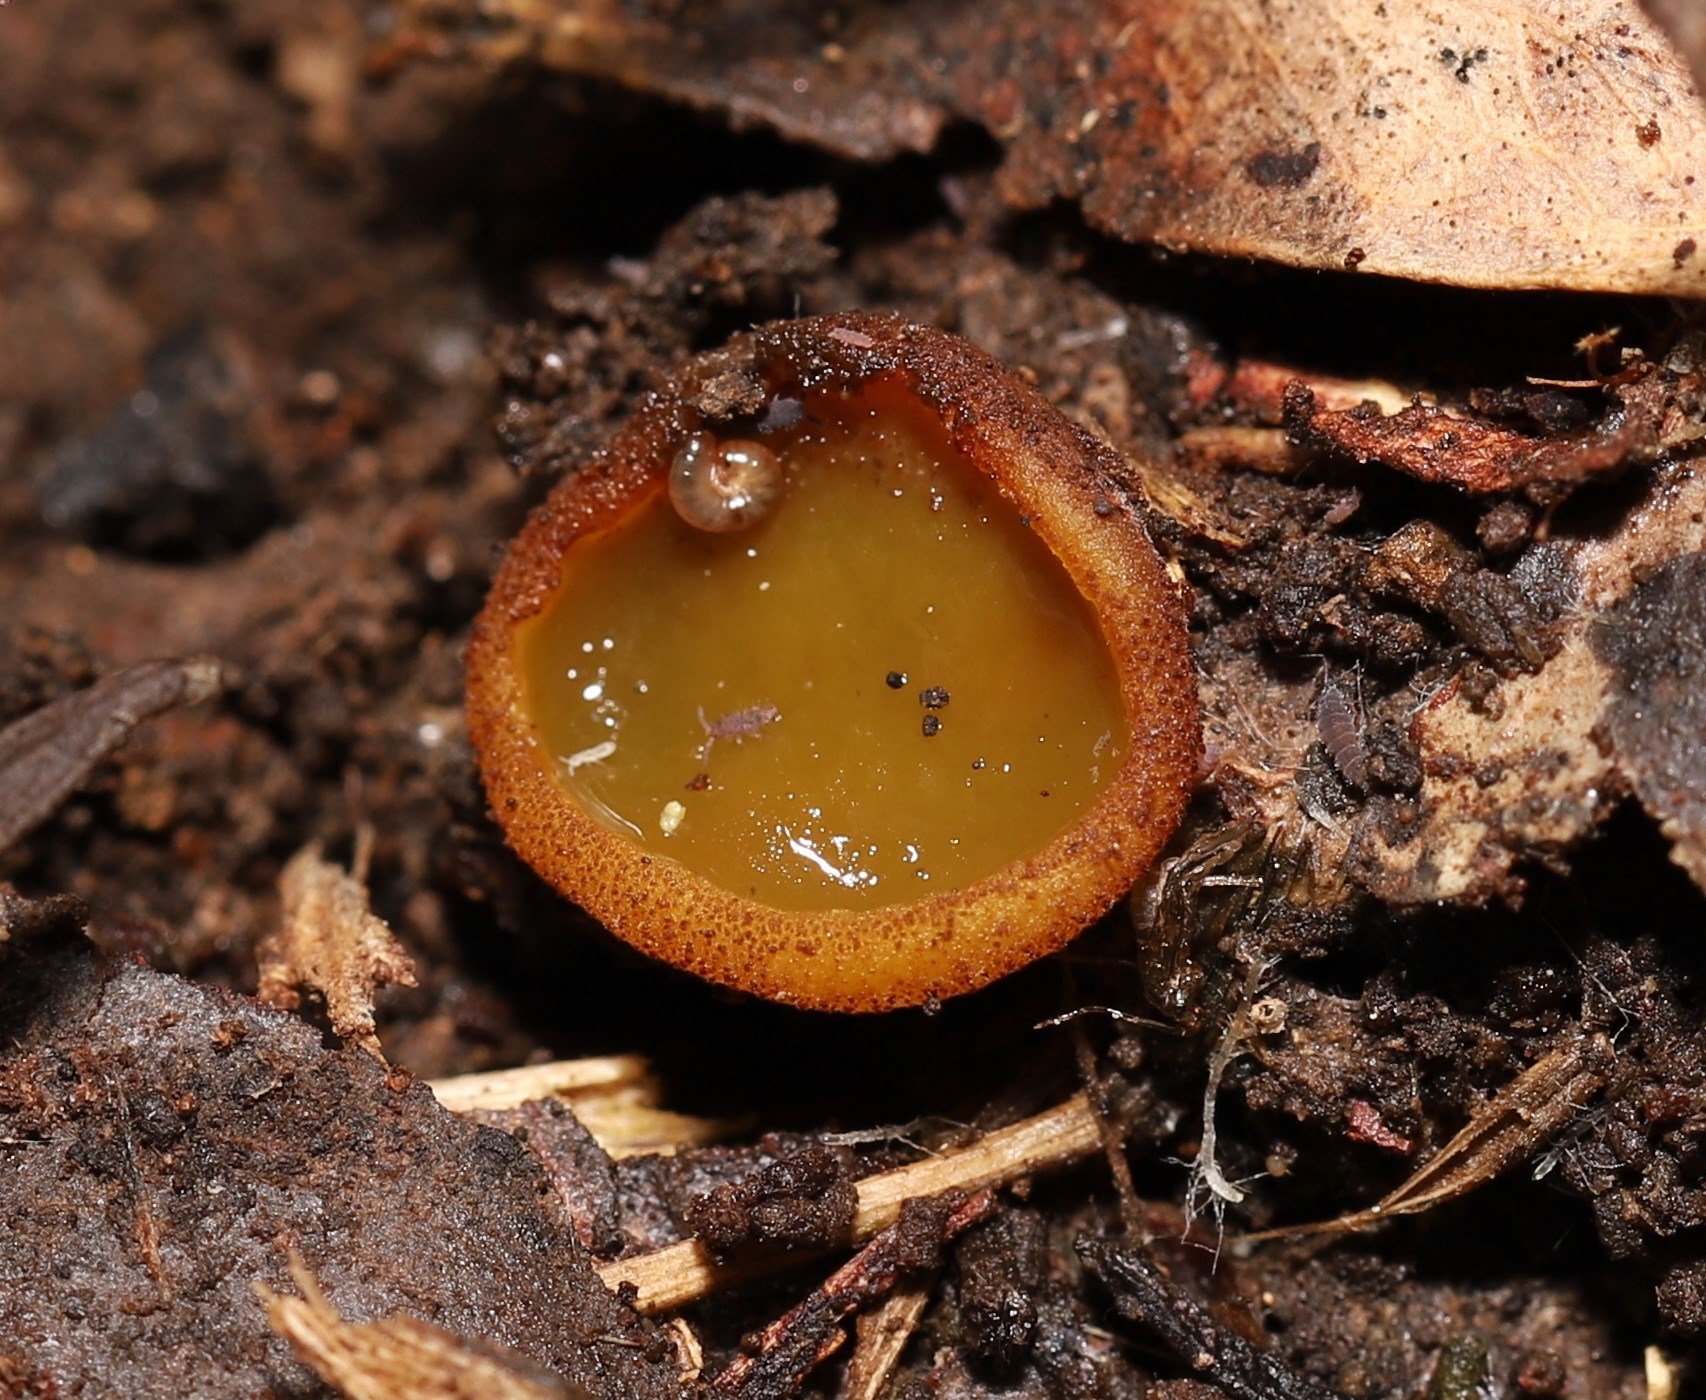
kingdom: Fungi
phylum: Ascomycota
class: Pezizomycetes
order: Pezizales
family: Pyronemataceae
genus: Aleurina
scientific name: Aleurina ferruginea
